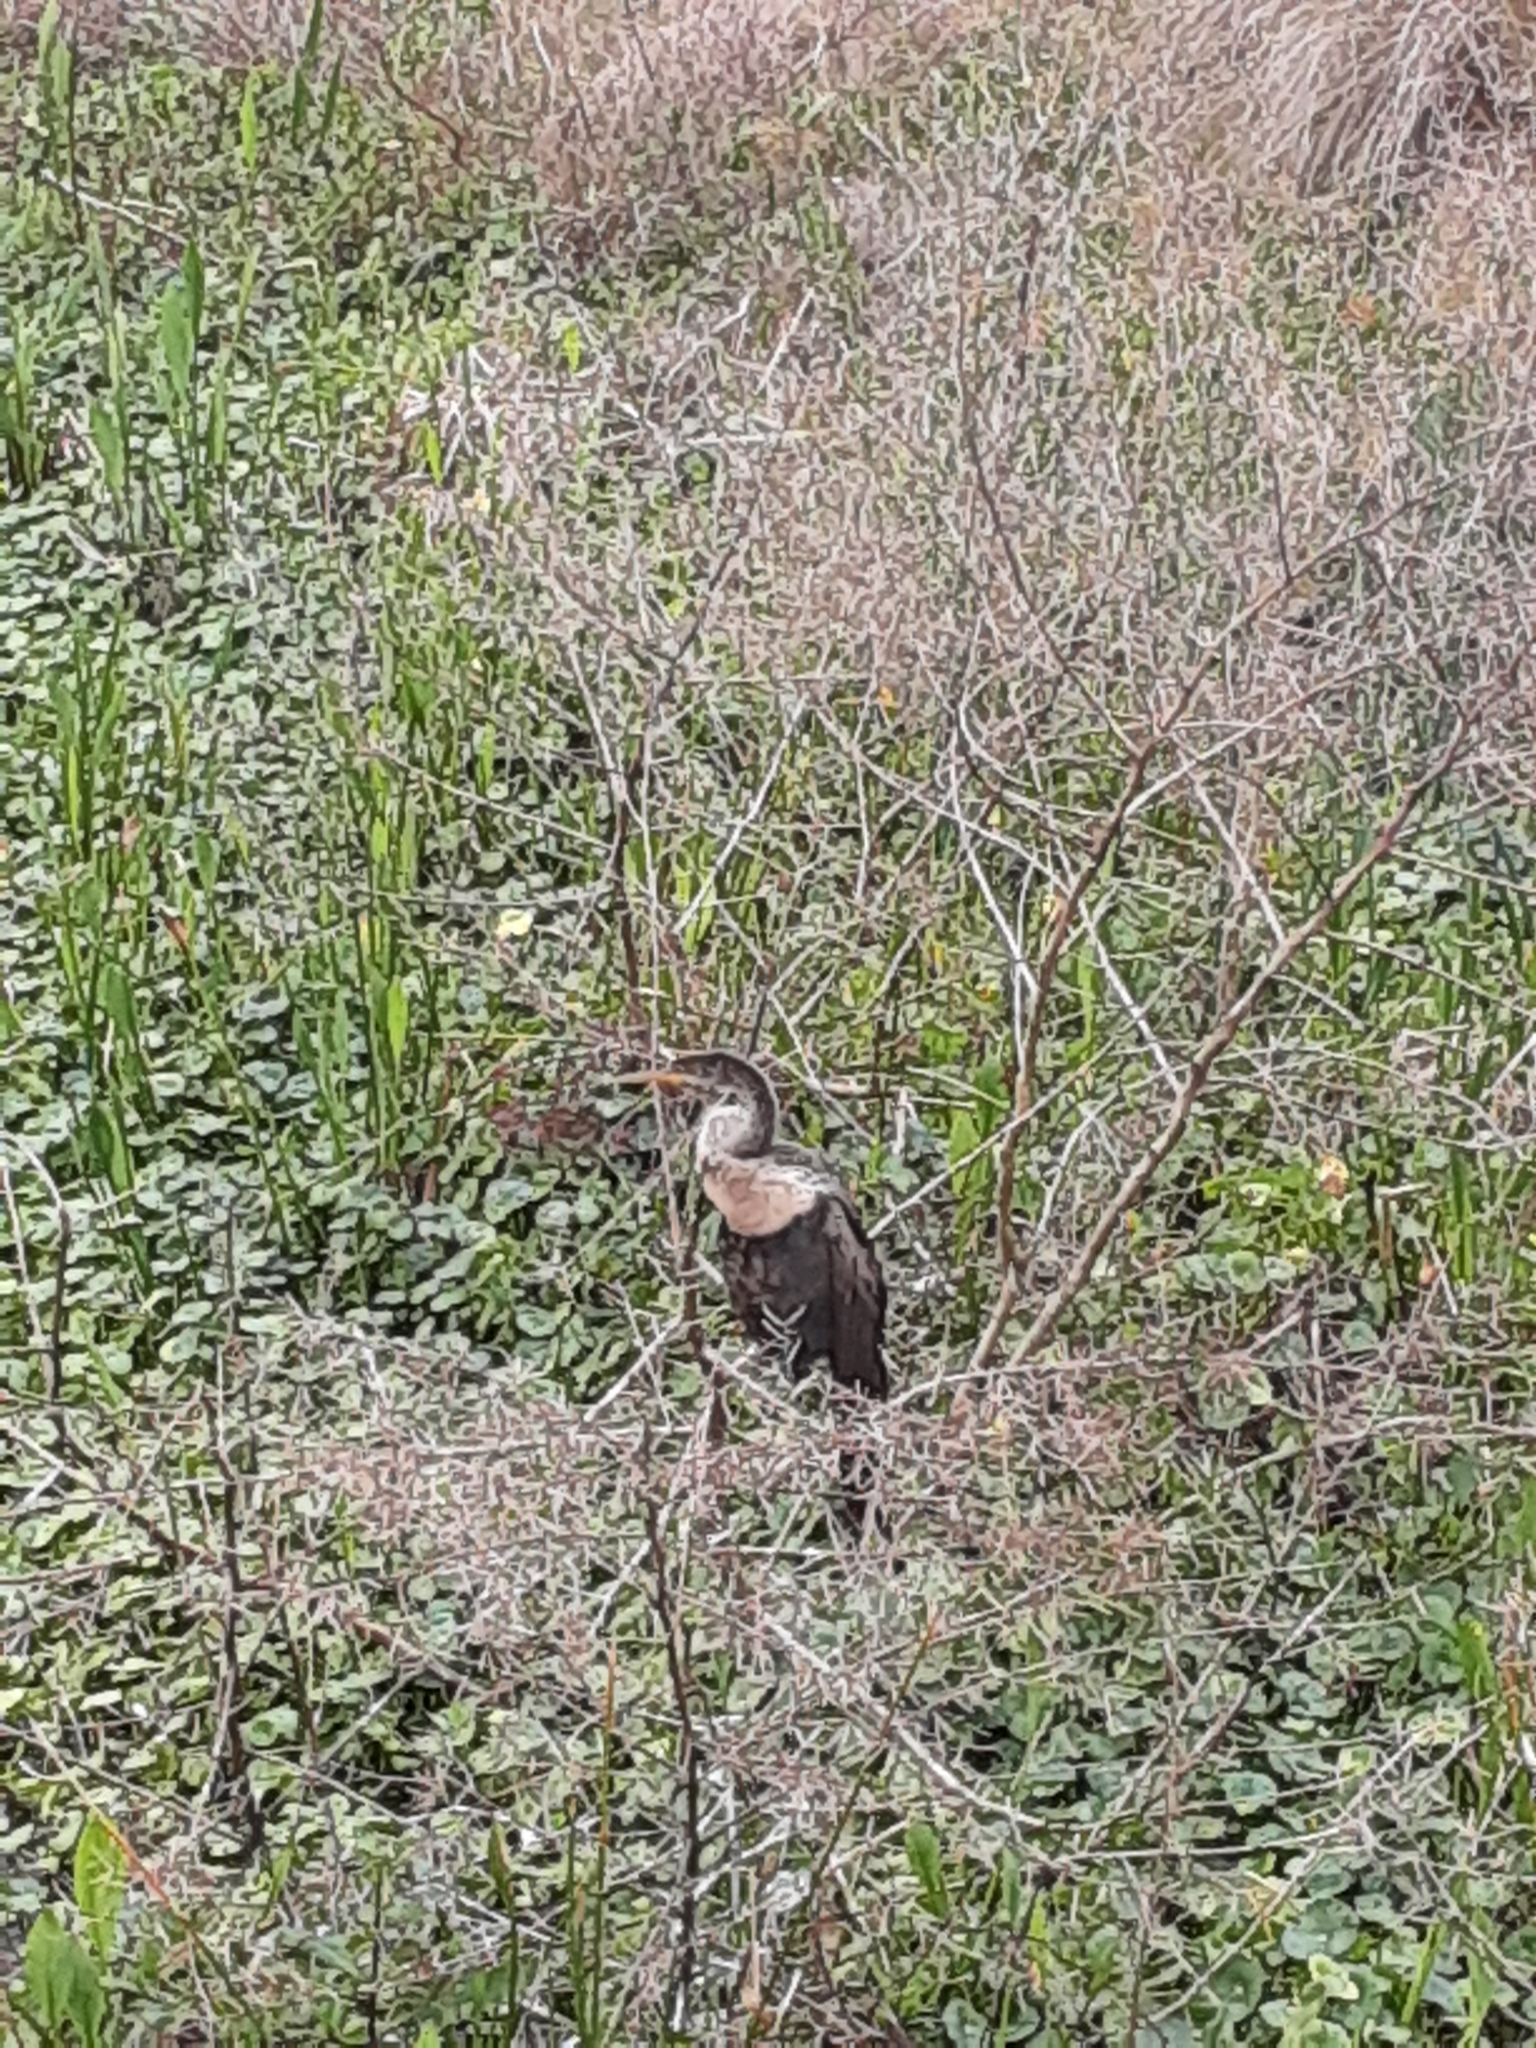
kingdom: Animalia
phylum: Chordata
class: Aves
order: Suliformes
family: Anhingidae
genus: Anhinga
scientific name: Anhinga anhinga
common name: Anhinga
